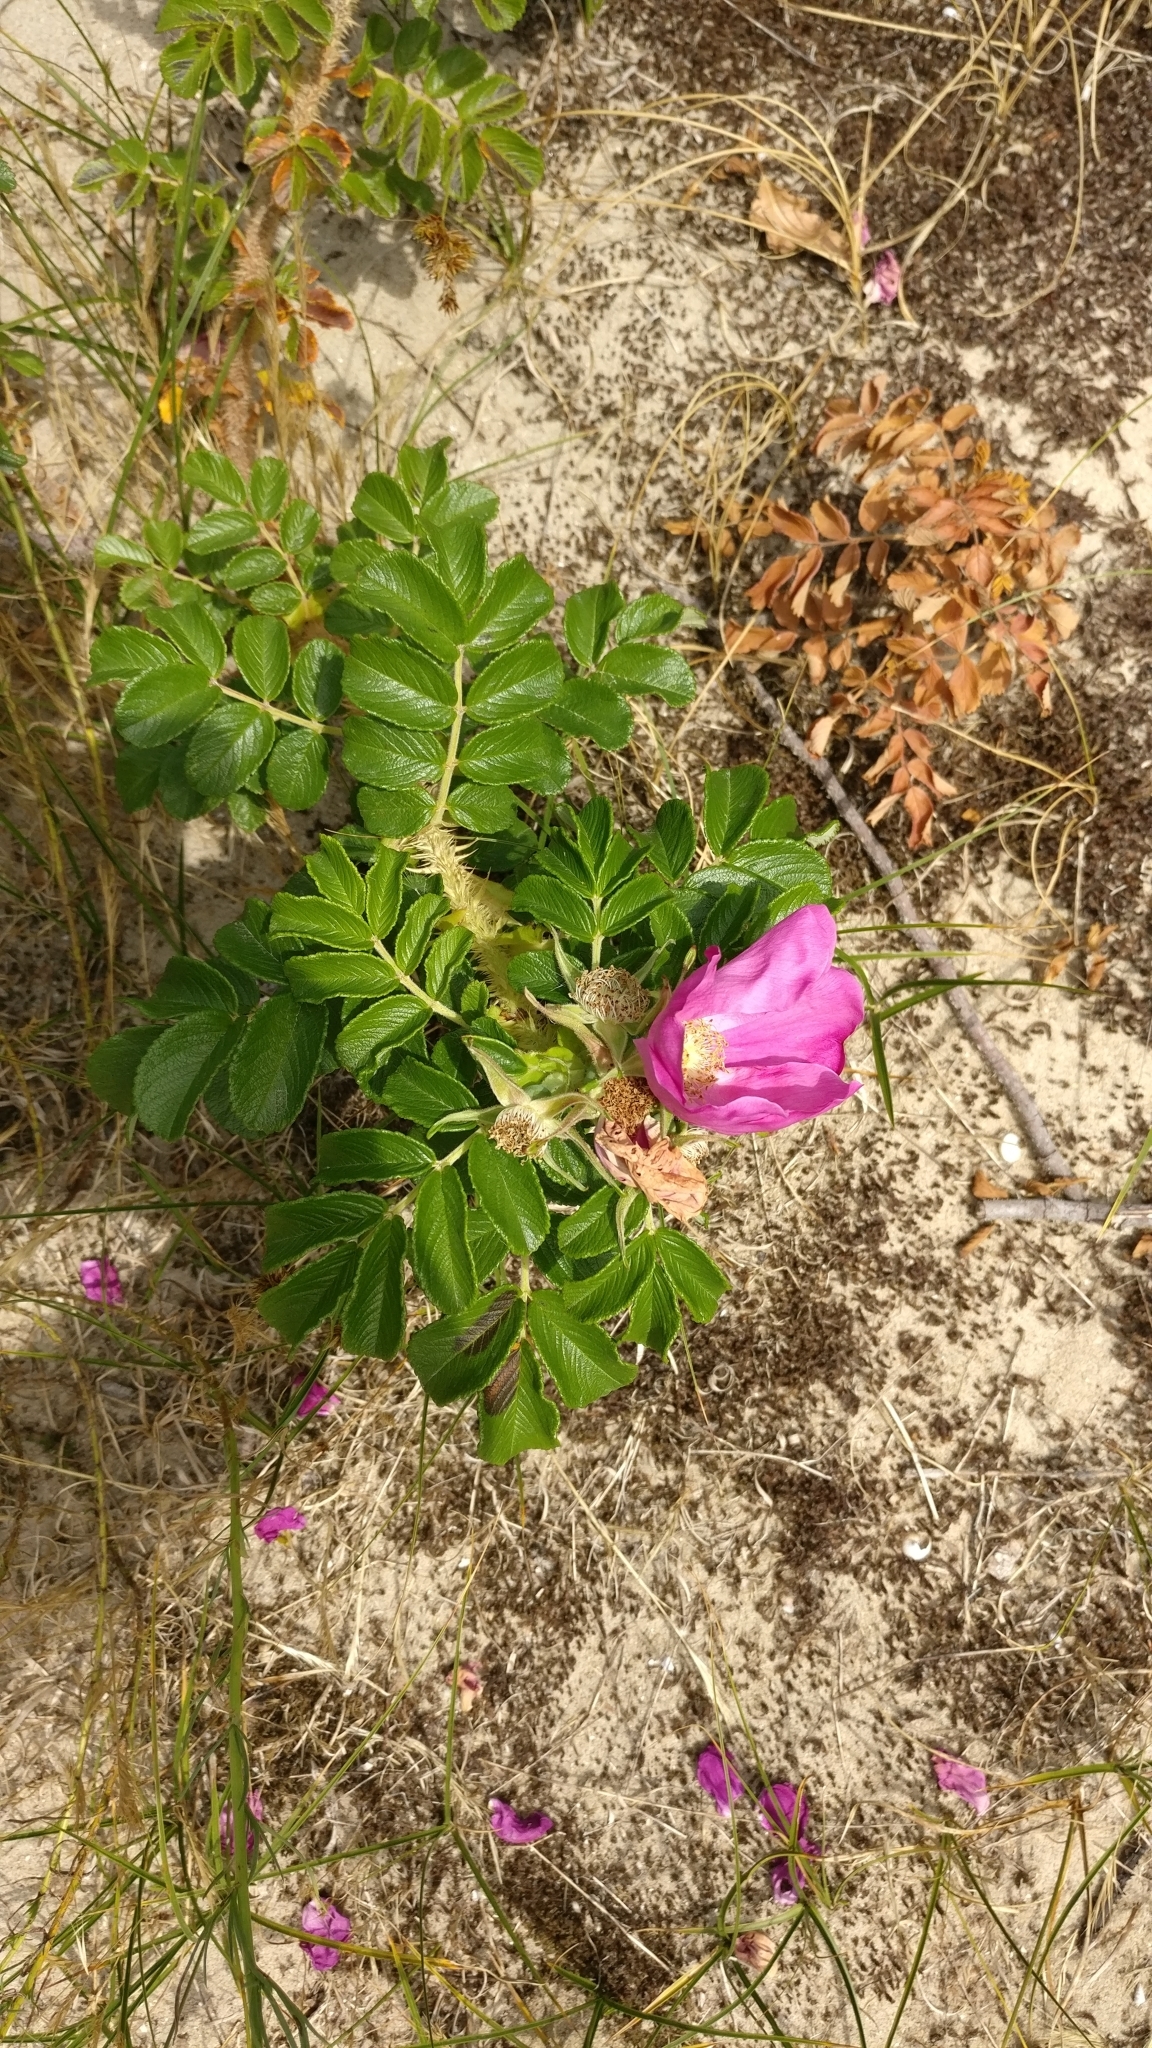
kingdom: Plantae
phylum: Tracheophyta
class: Magnoliopsida
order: Rosales
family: Rosaceae
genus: Rosa
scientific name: Rosa rugosa
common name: Japanese rose
